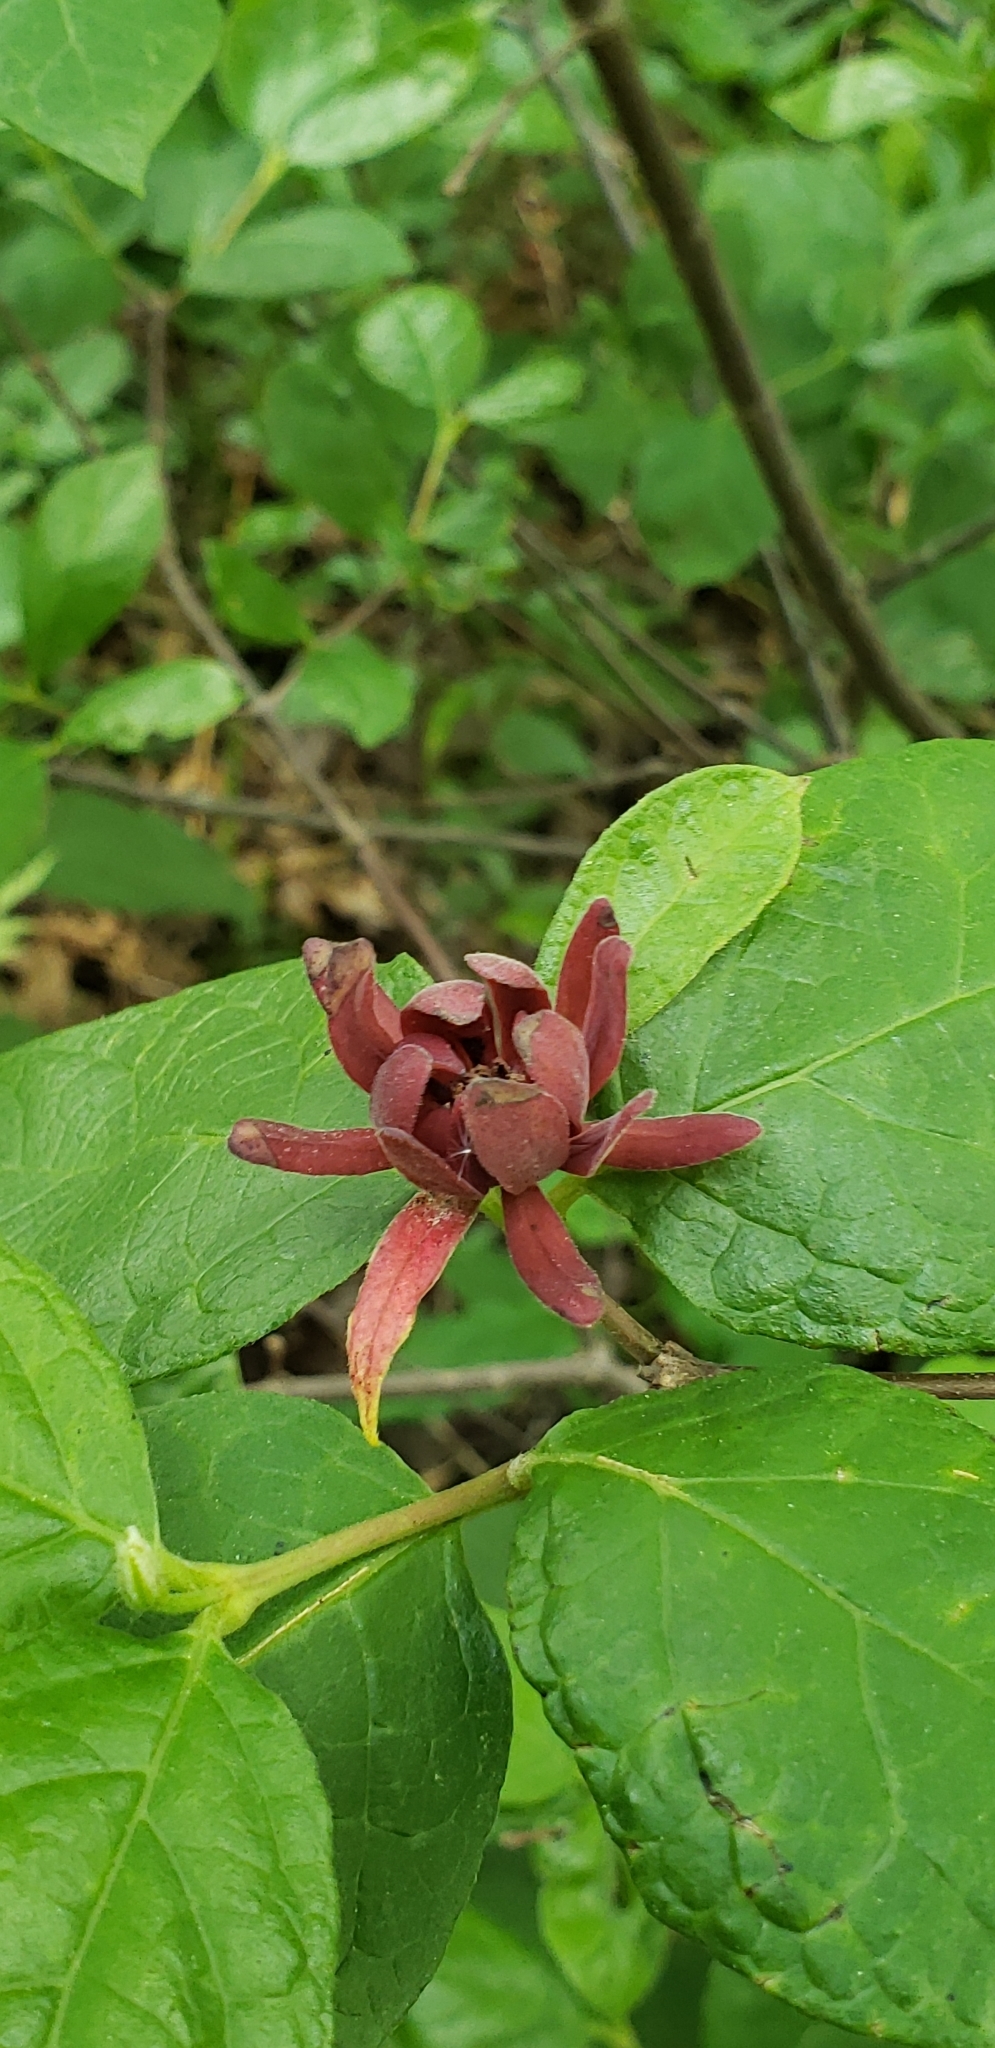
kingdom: Plantae
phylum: Tracheophyta
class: Magnoliopsida
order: Laurales
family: Calycanthaceae
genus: Calycanthus
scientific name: Calycanthus floridus
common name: Carolina-allspice
